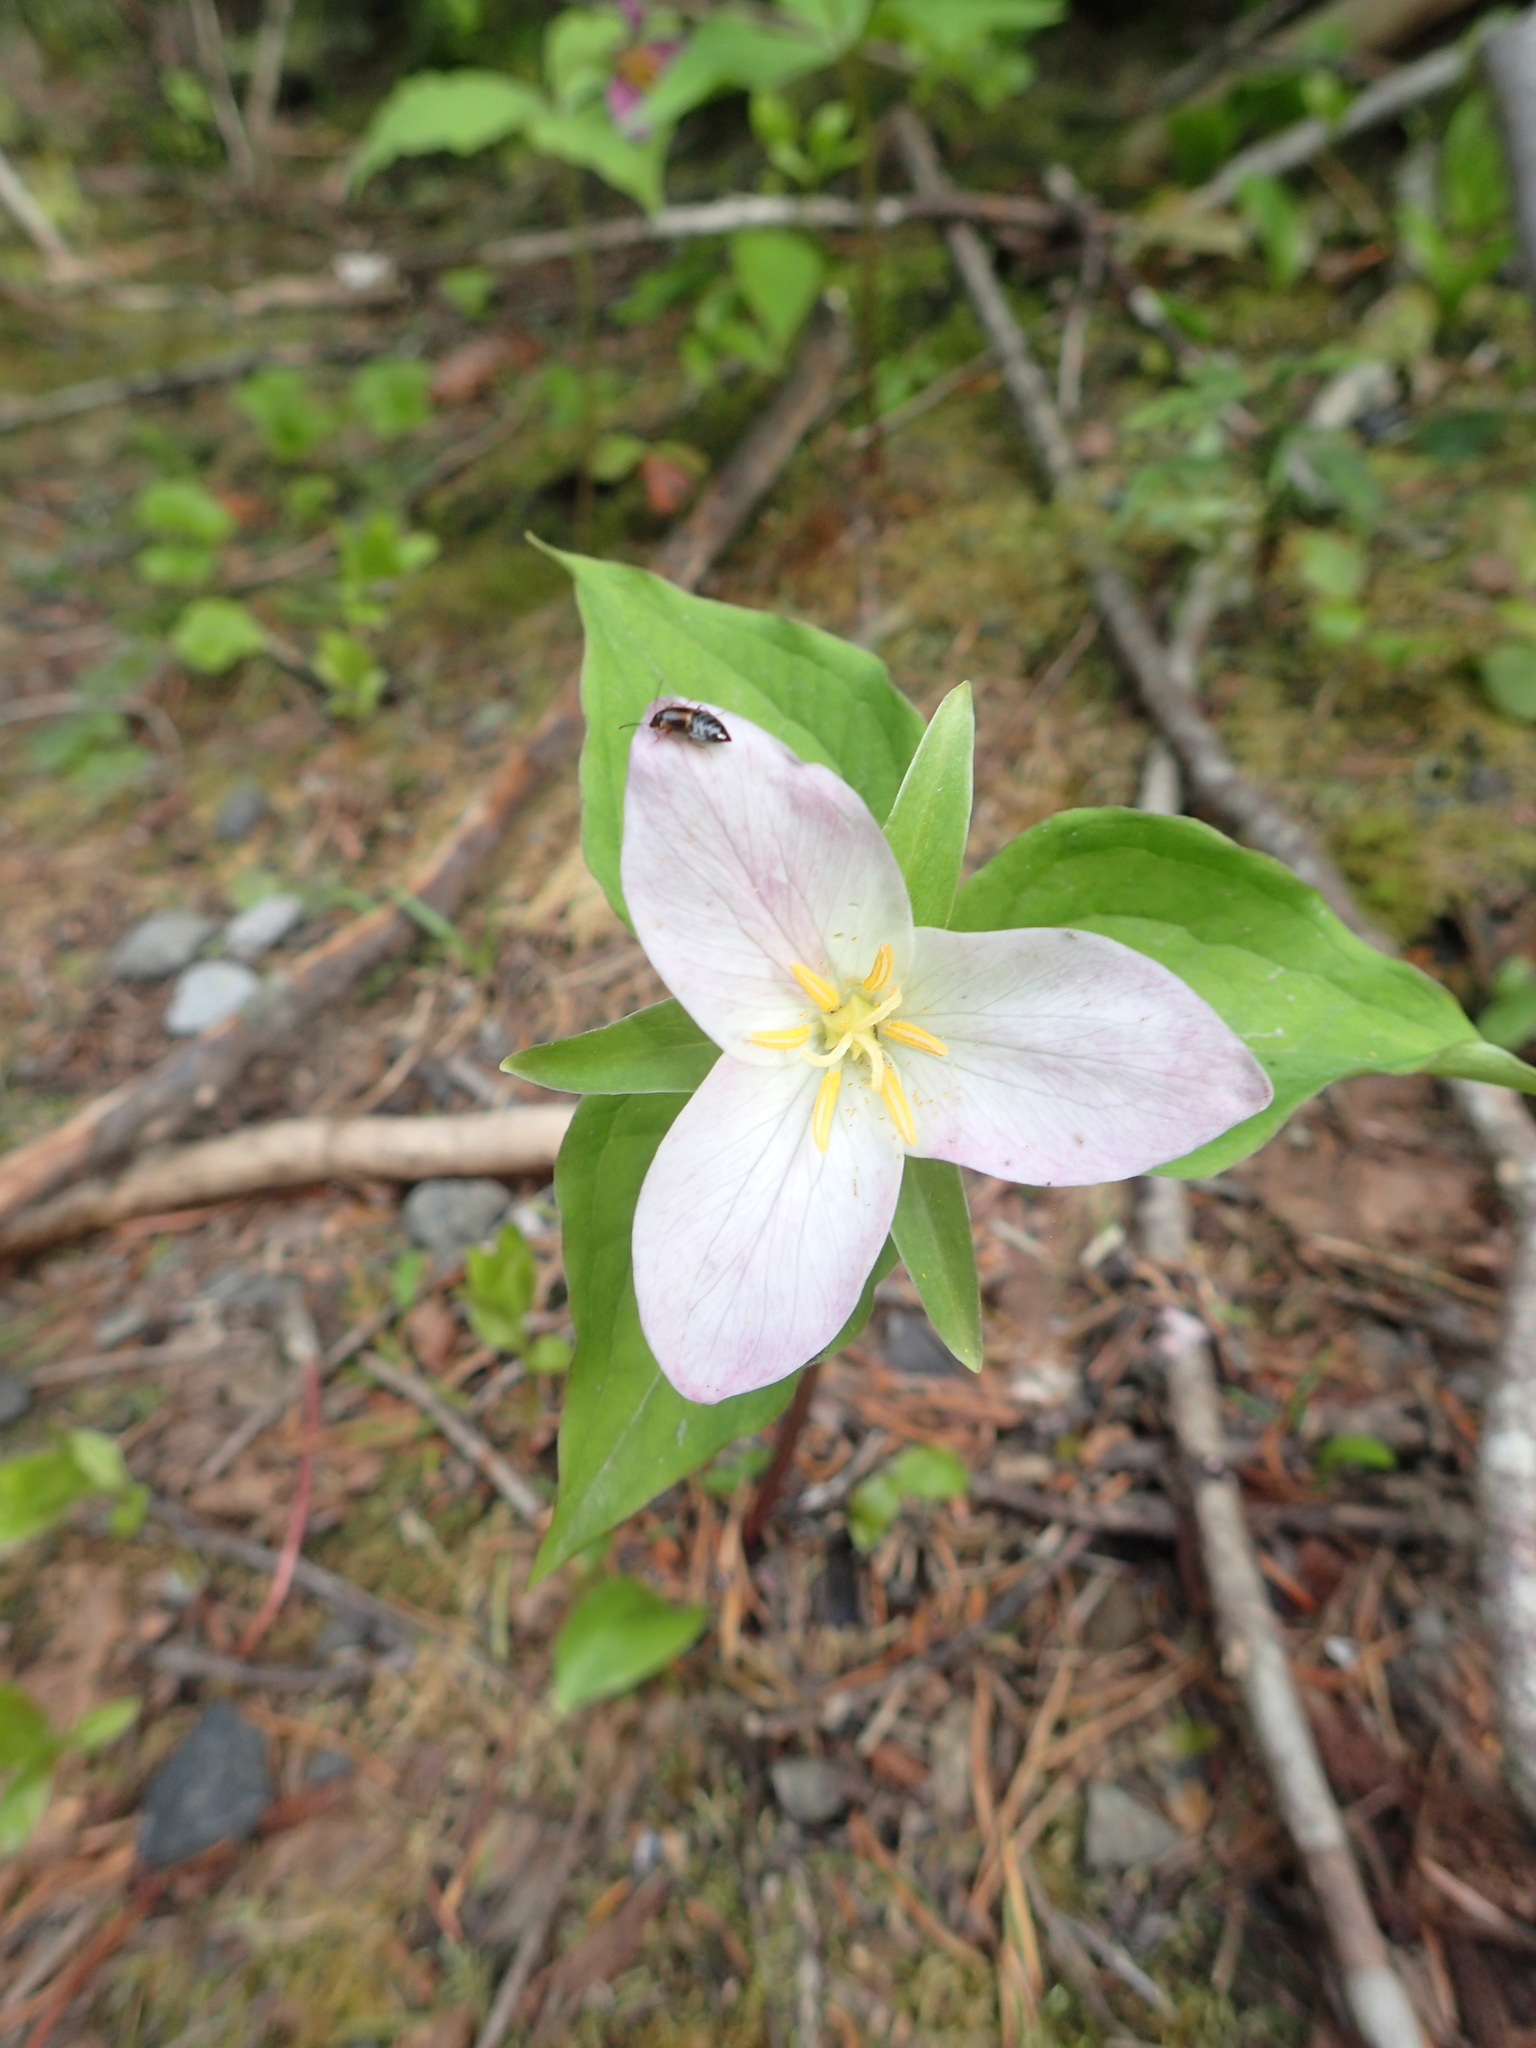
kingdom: Plantae
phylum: Tracheophyta
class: Liliopsida
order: Liliales
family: Melanthiaceae
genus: Trillium
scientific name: Trillium ovatum
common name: Pacific trillium
